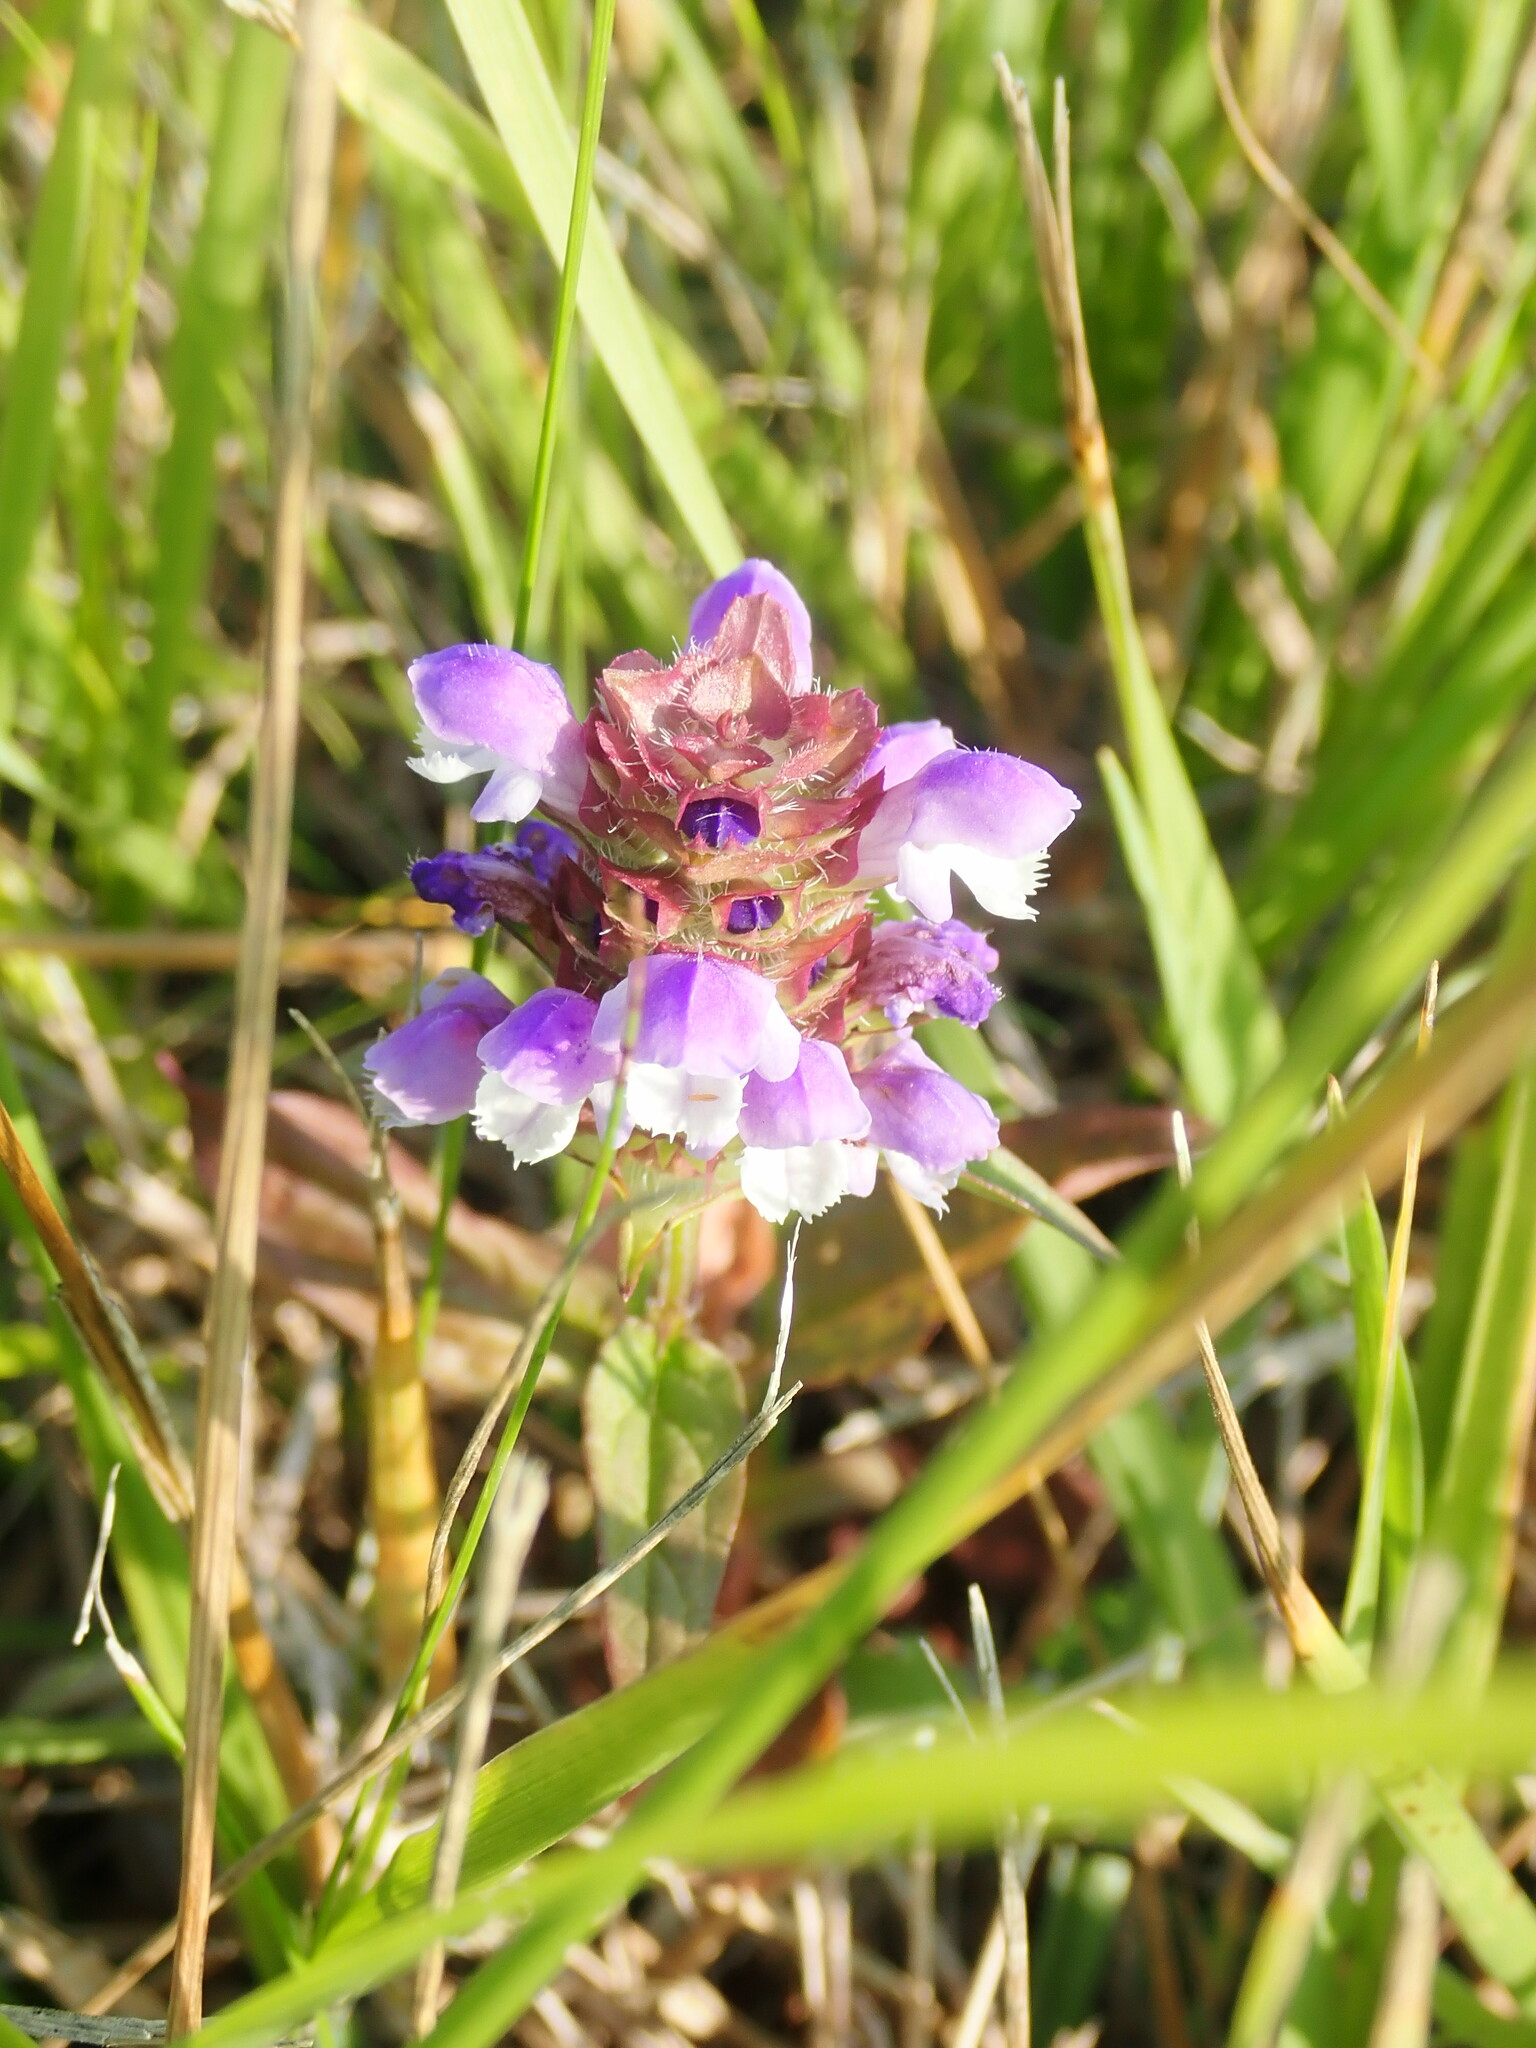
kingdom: Plantae
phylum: Tracheophyta
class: Magnoliopsida
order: Lamiales
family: Lamiaceae
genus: Prunella
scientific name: Prunella vulgaris
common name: Heal-all
